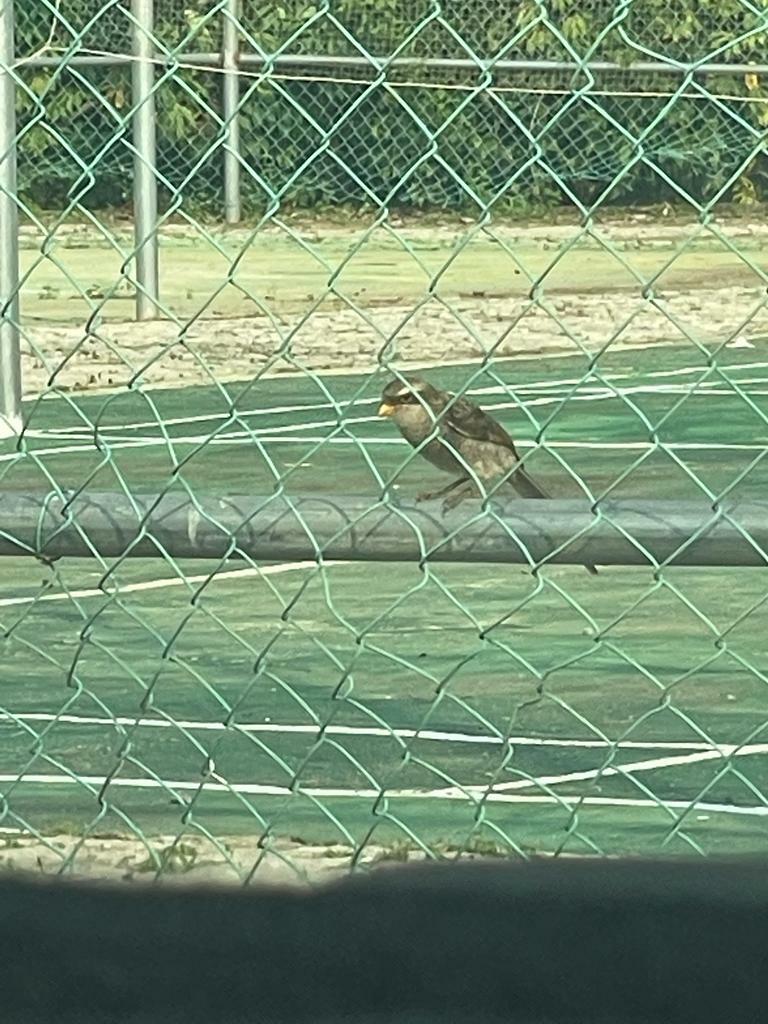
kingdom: Animalia
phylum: Chordata
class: Aves
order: Passeriformes
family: Laniidae
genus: Corvinella
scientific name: Corvinella corvina
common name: Yellow-billed shrike
